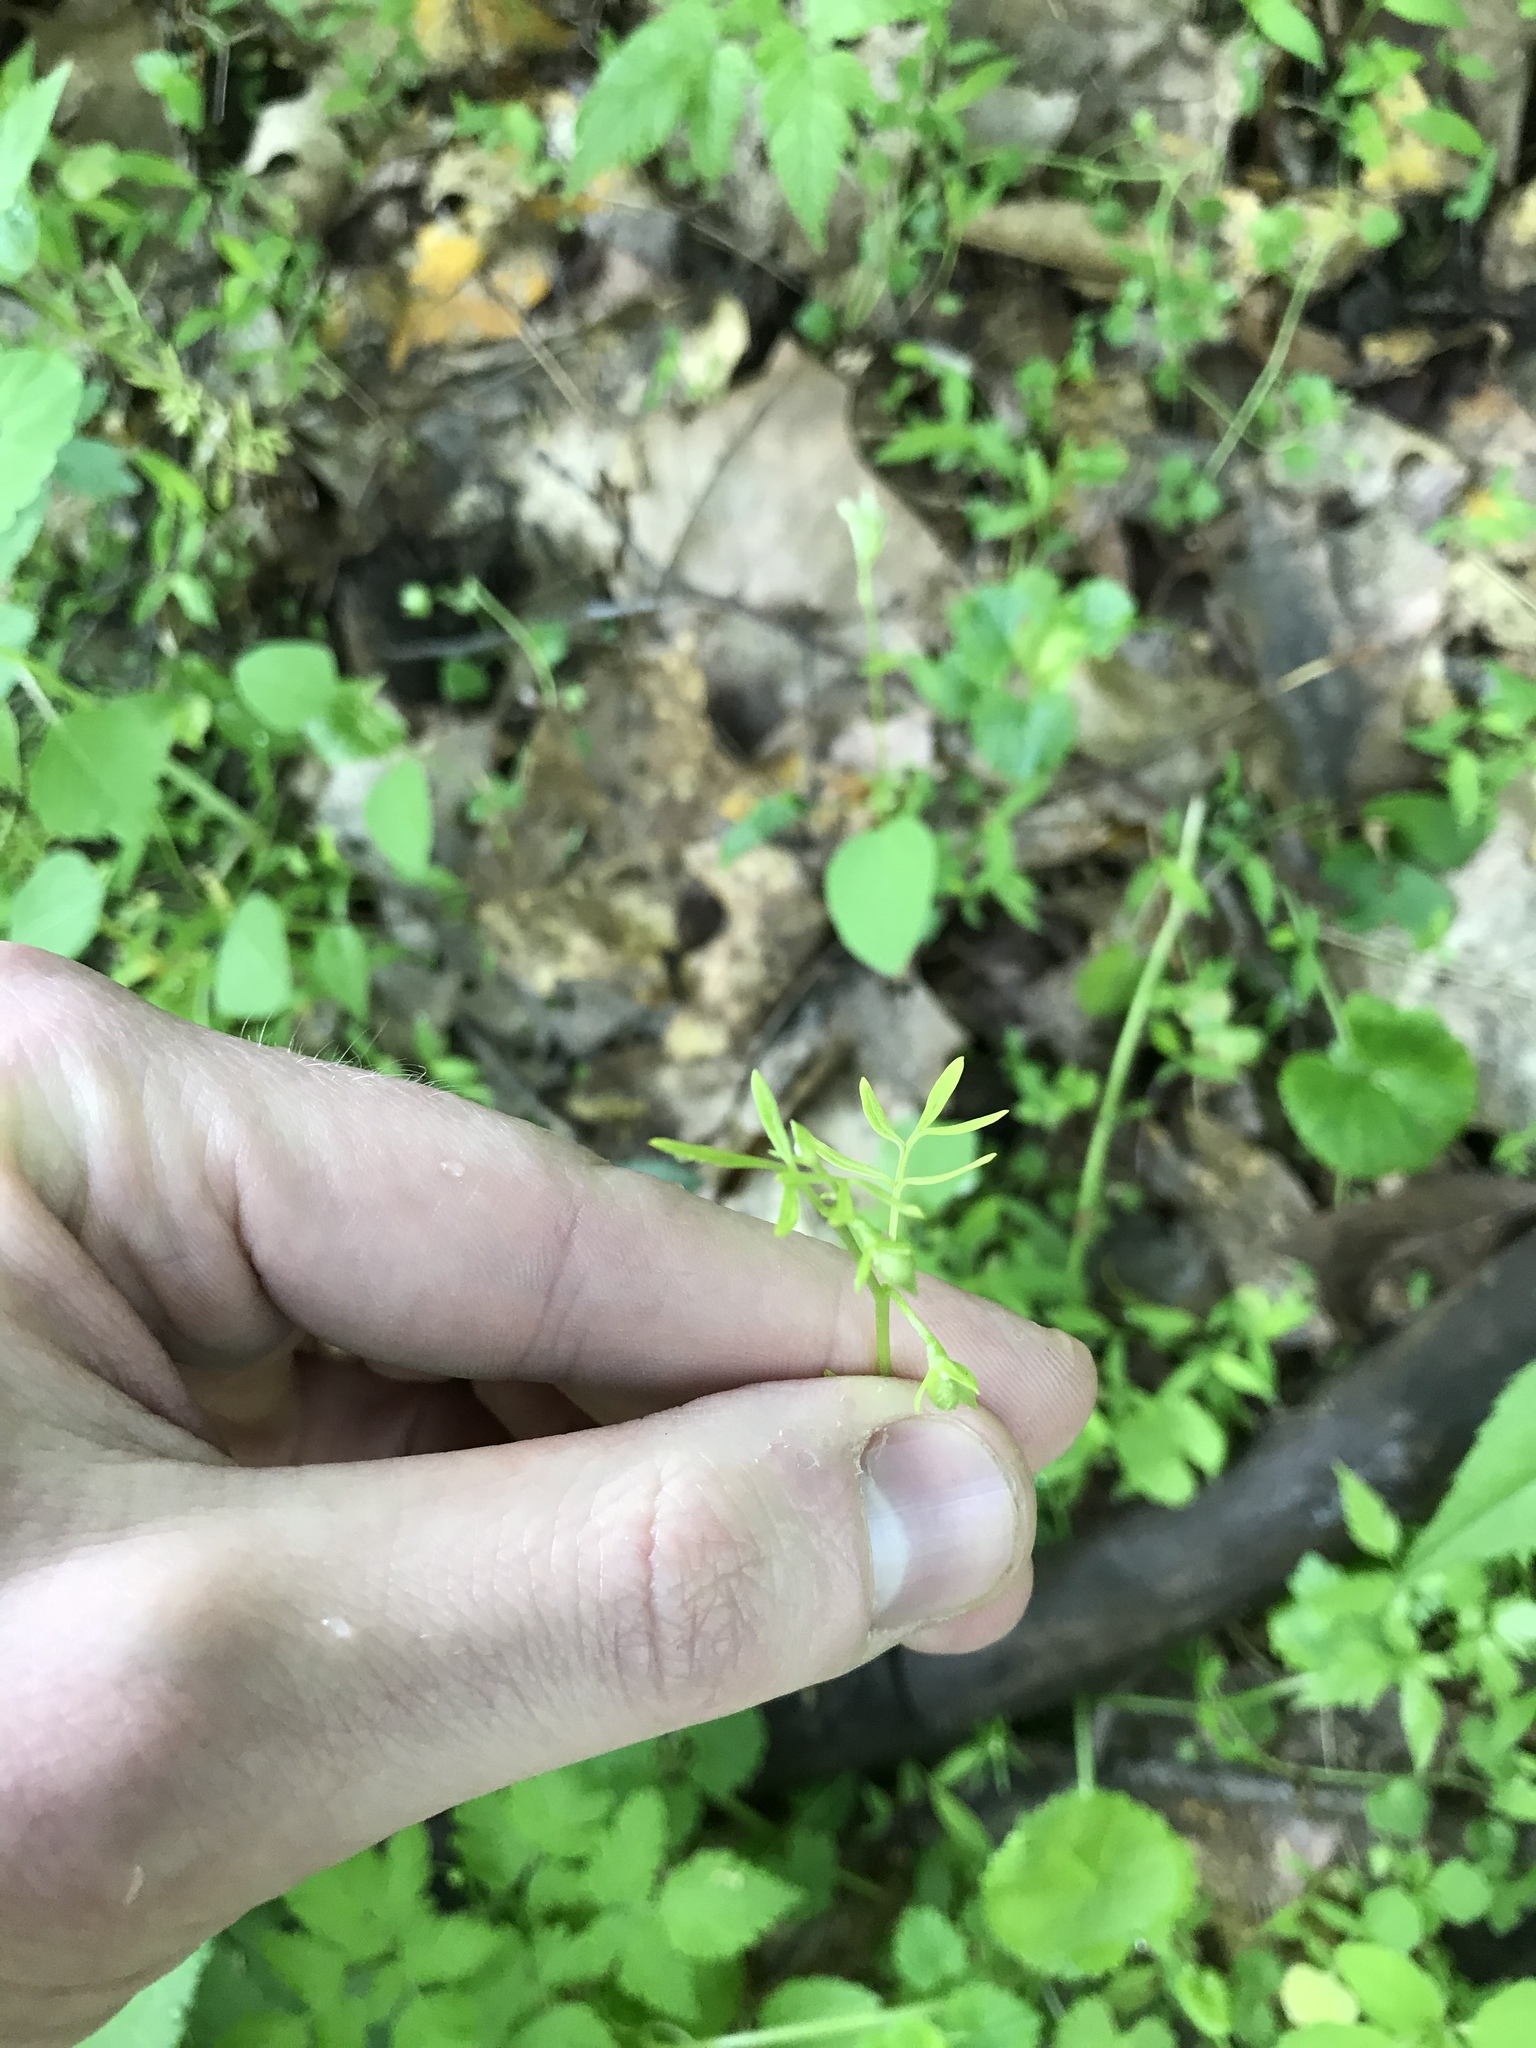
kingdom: Plantae
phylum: Tracheophyta
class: Magnoliopsida
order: Brassicales
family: Limnanthaceae
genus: Floerkea
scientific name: Floerkea proserpinacoides
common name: False mermaid
